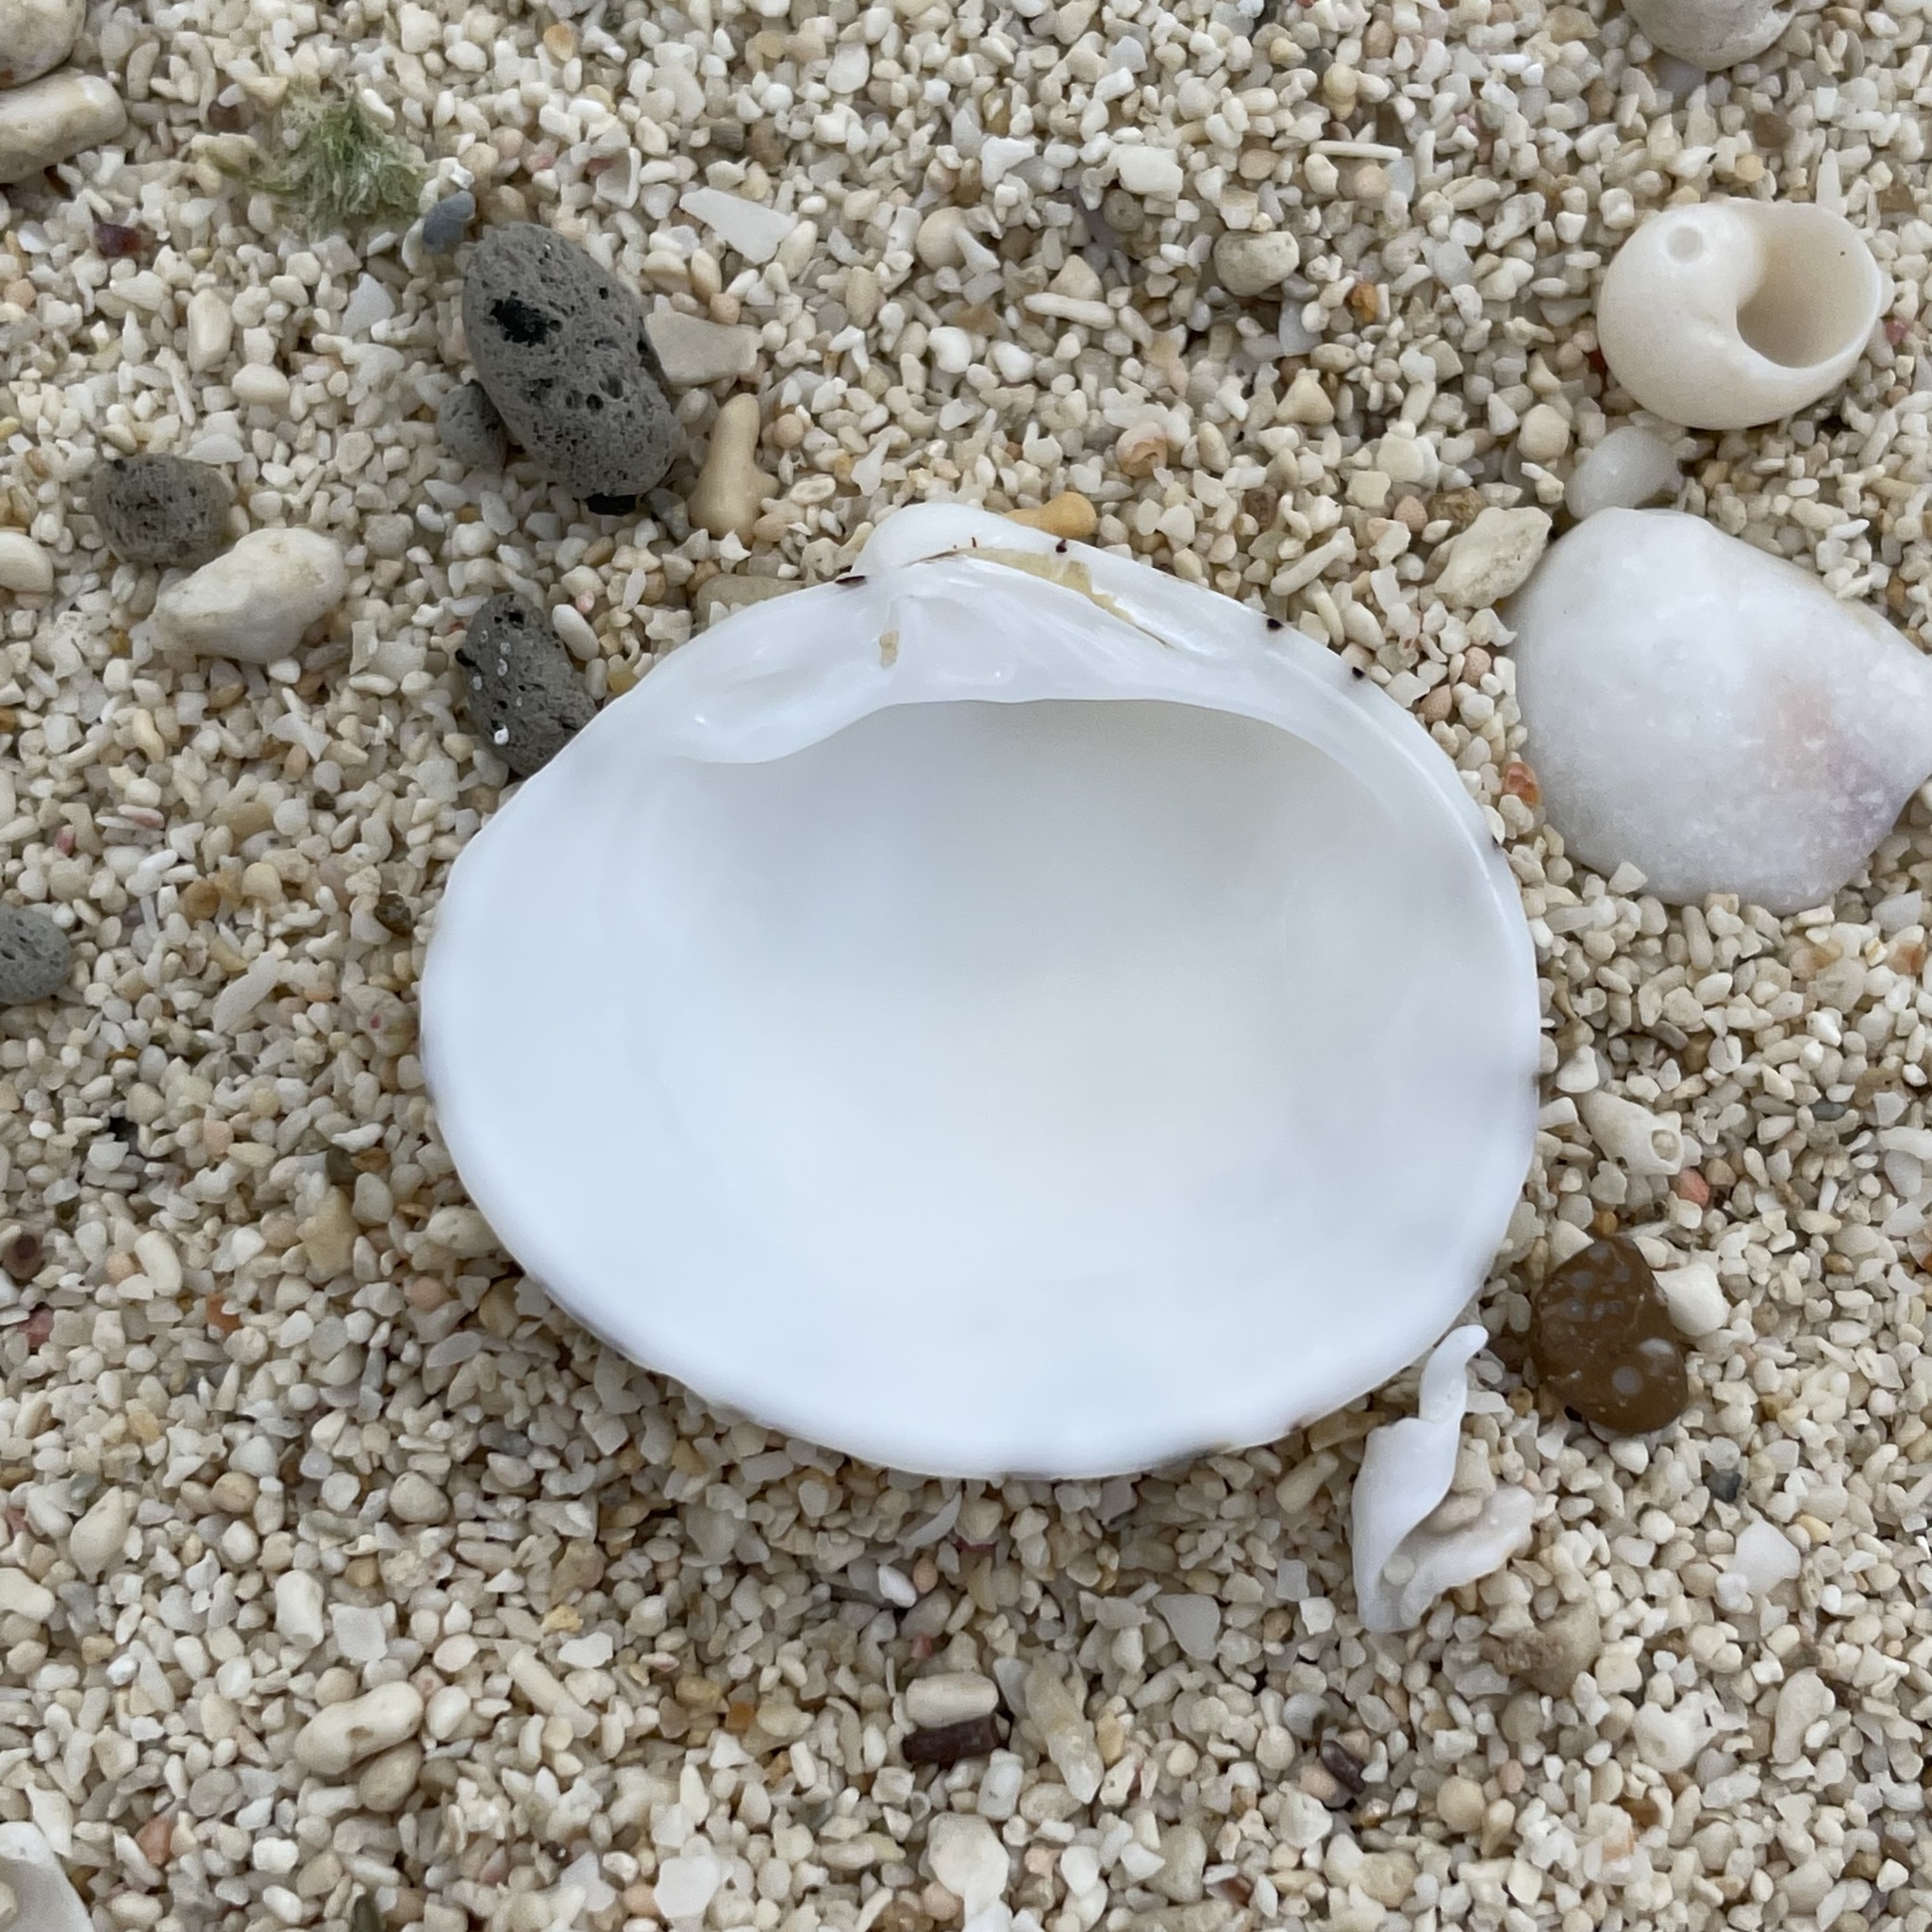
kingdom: Animalia
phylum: Mollusca
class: Bivalvia
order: Venerida
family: Veneridae
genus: Lioconcha
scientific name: Lioconcha castrensis
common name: Camp pitar-venus
